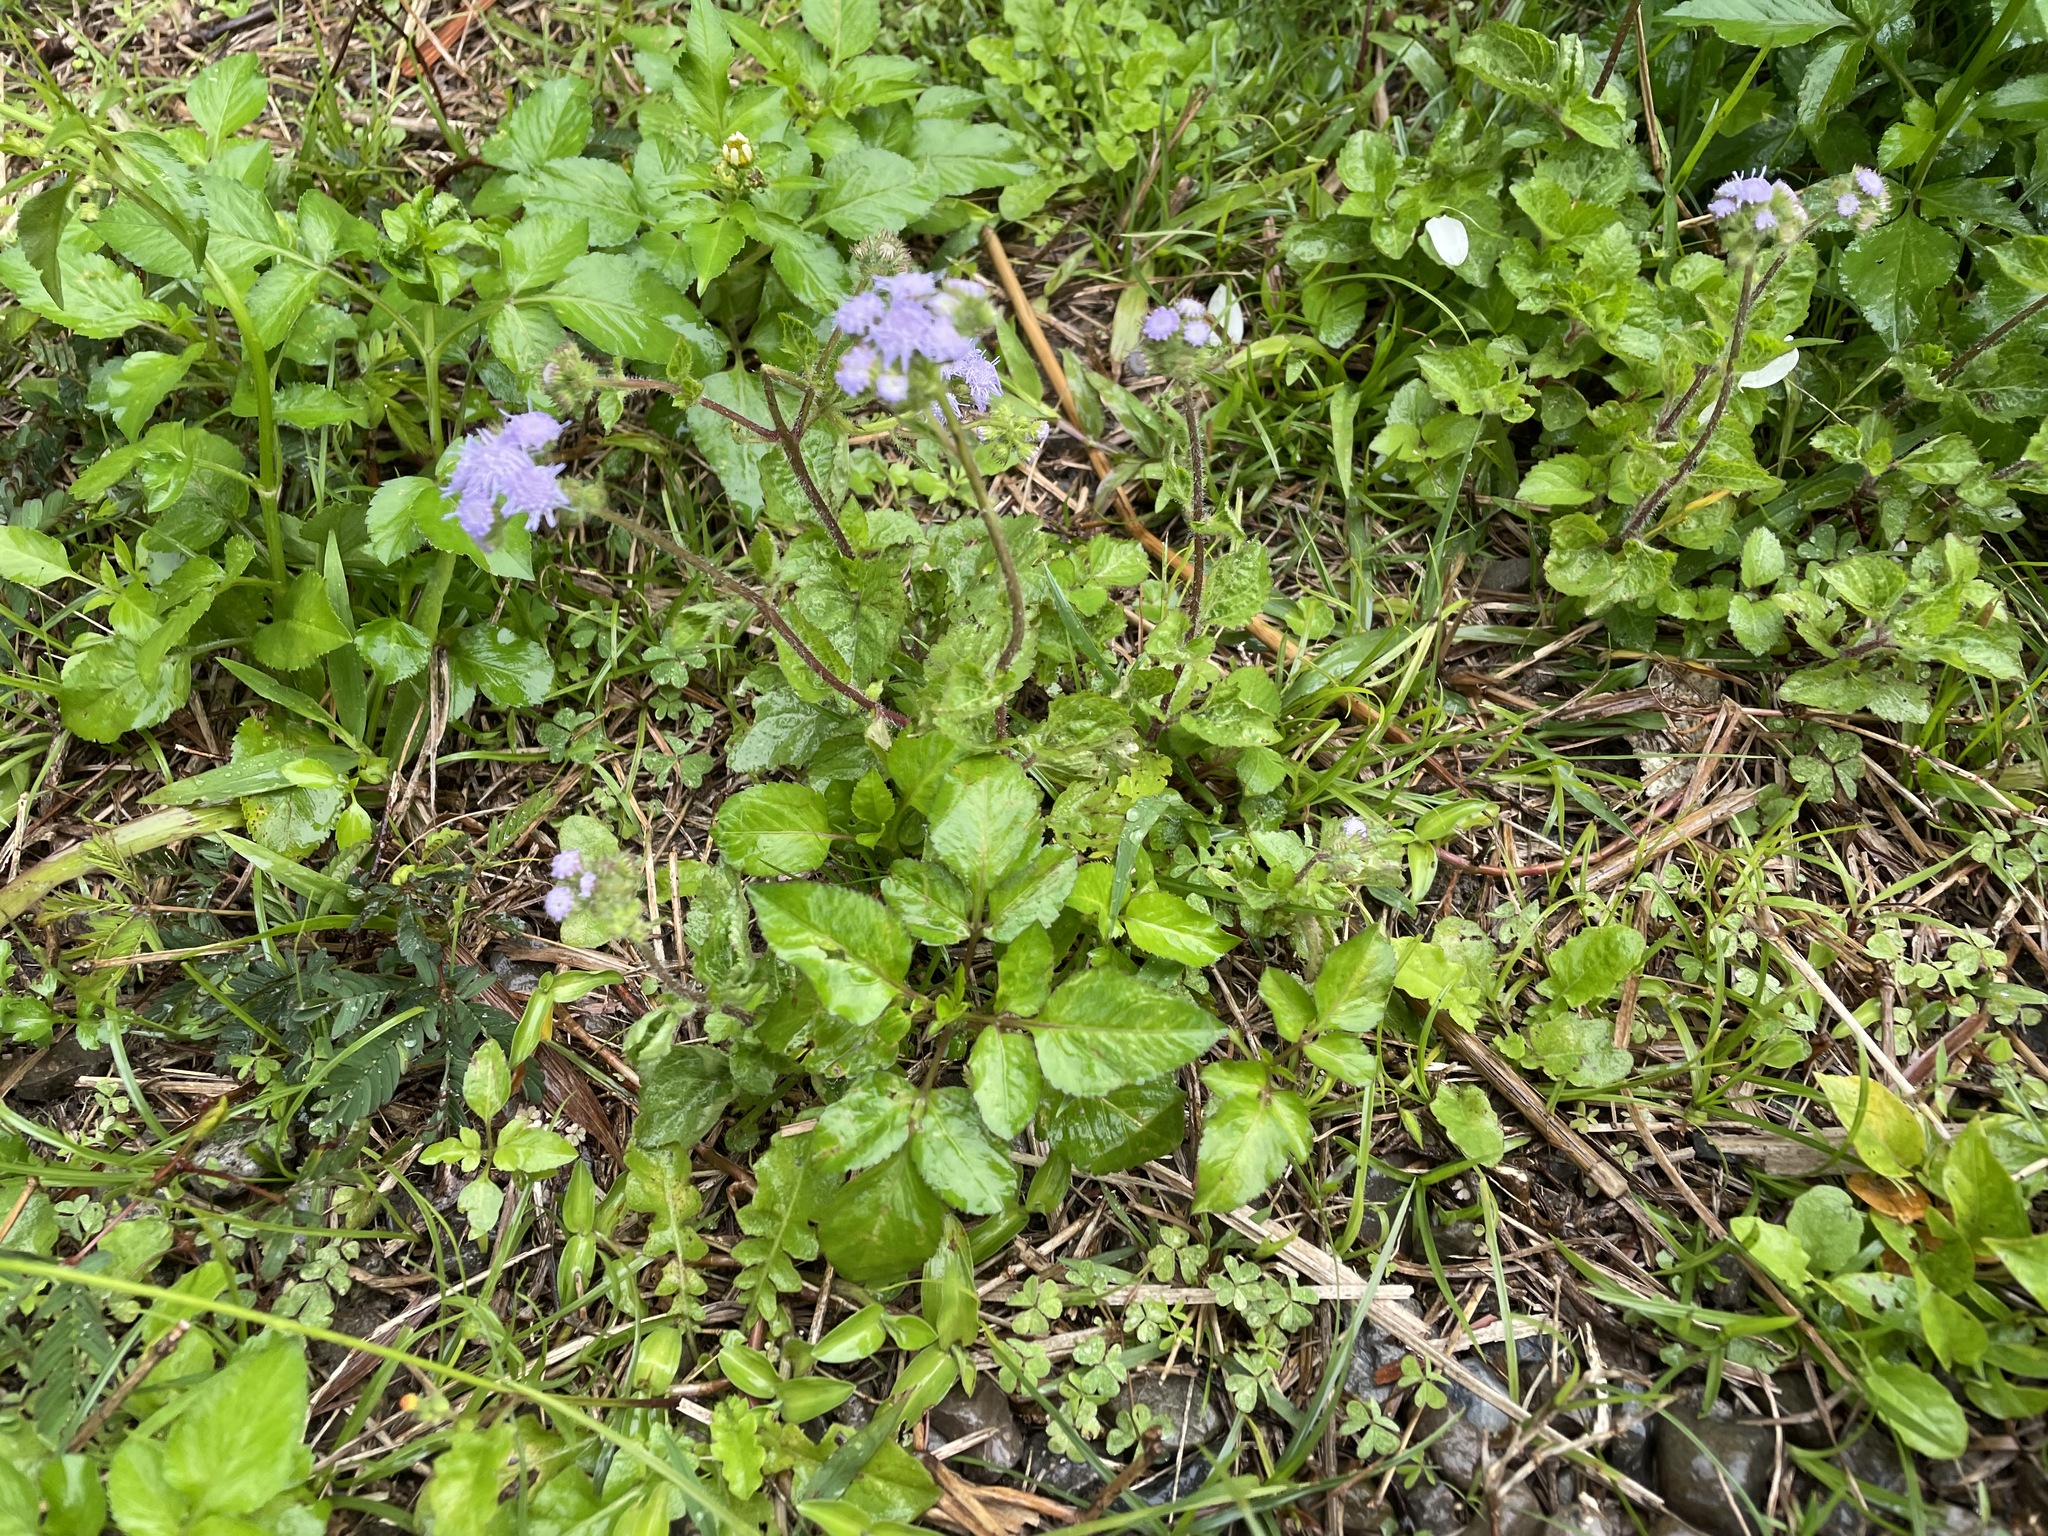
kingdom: Plantae
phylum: Tracheophyta
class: Magnoliopsida
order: Asterales
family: Asteraceae
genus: Ageratum
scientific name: Ageratum houstonianum
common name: Bluemink
